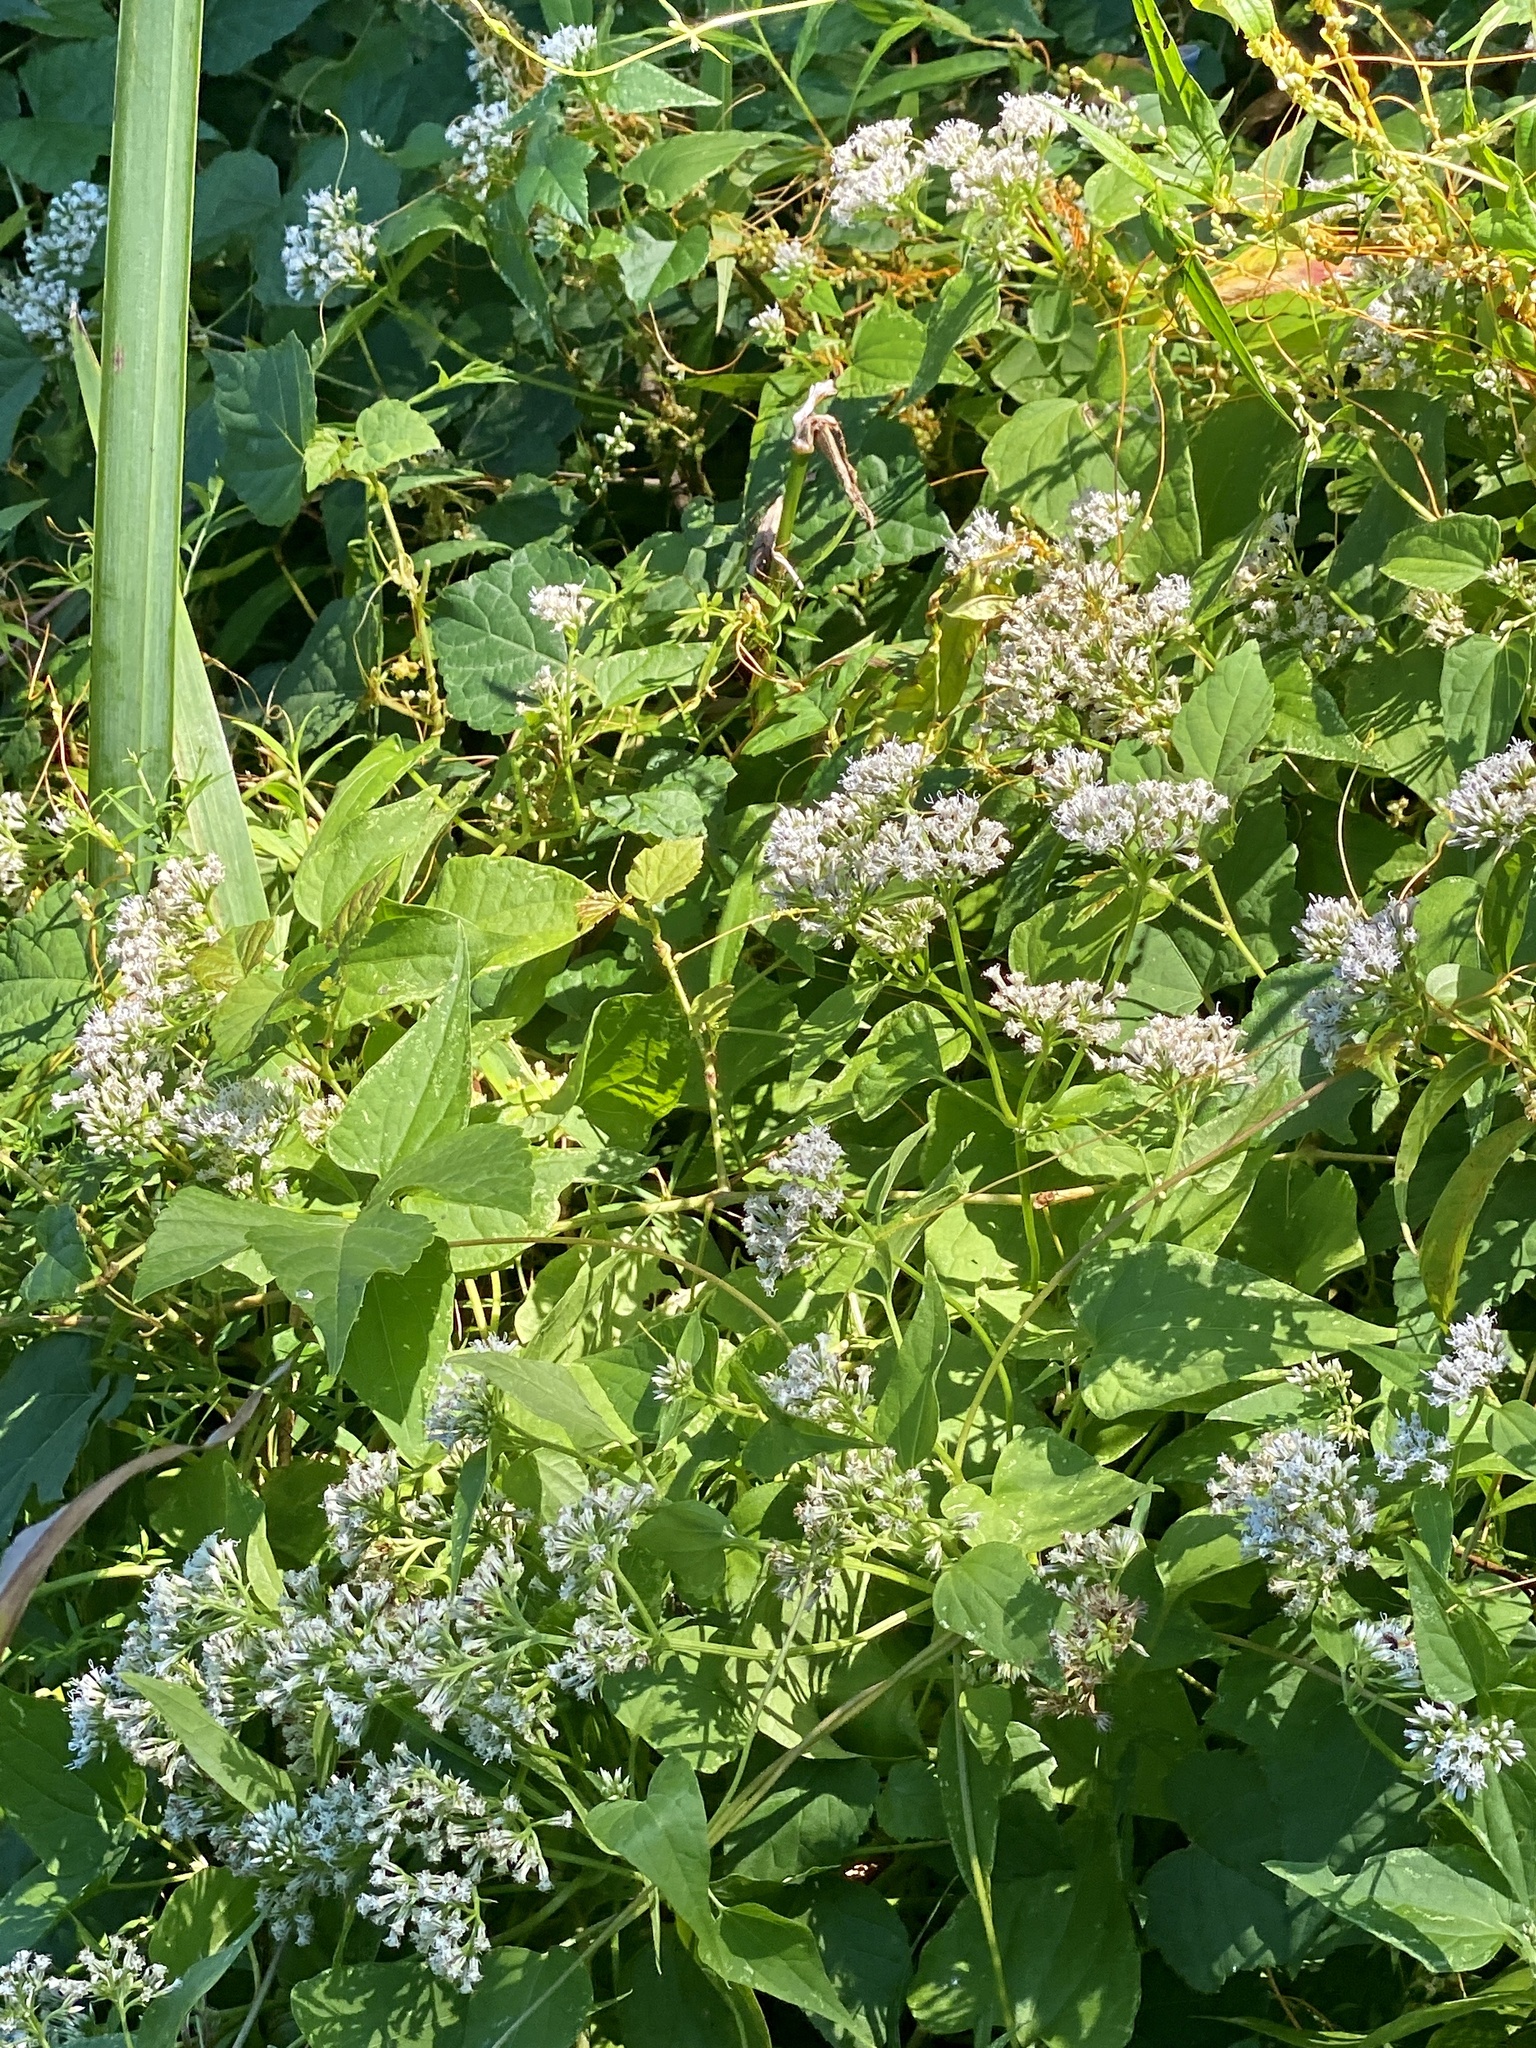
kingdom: Plantae
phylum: Tracheophyta
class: Magnoliopsida
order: Asterales
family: Asteraceae
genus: Mikania
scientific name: Mikania scandens
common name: Climbing hempvine
